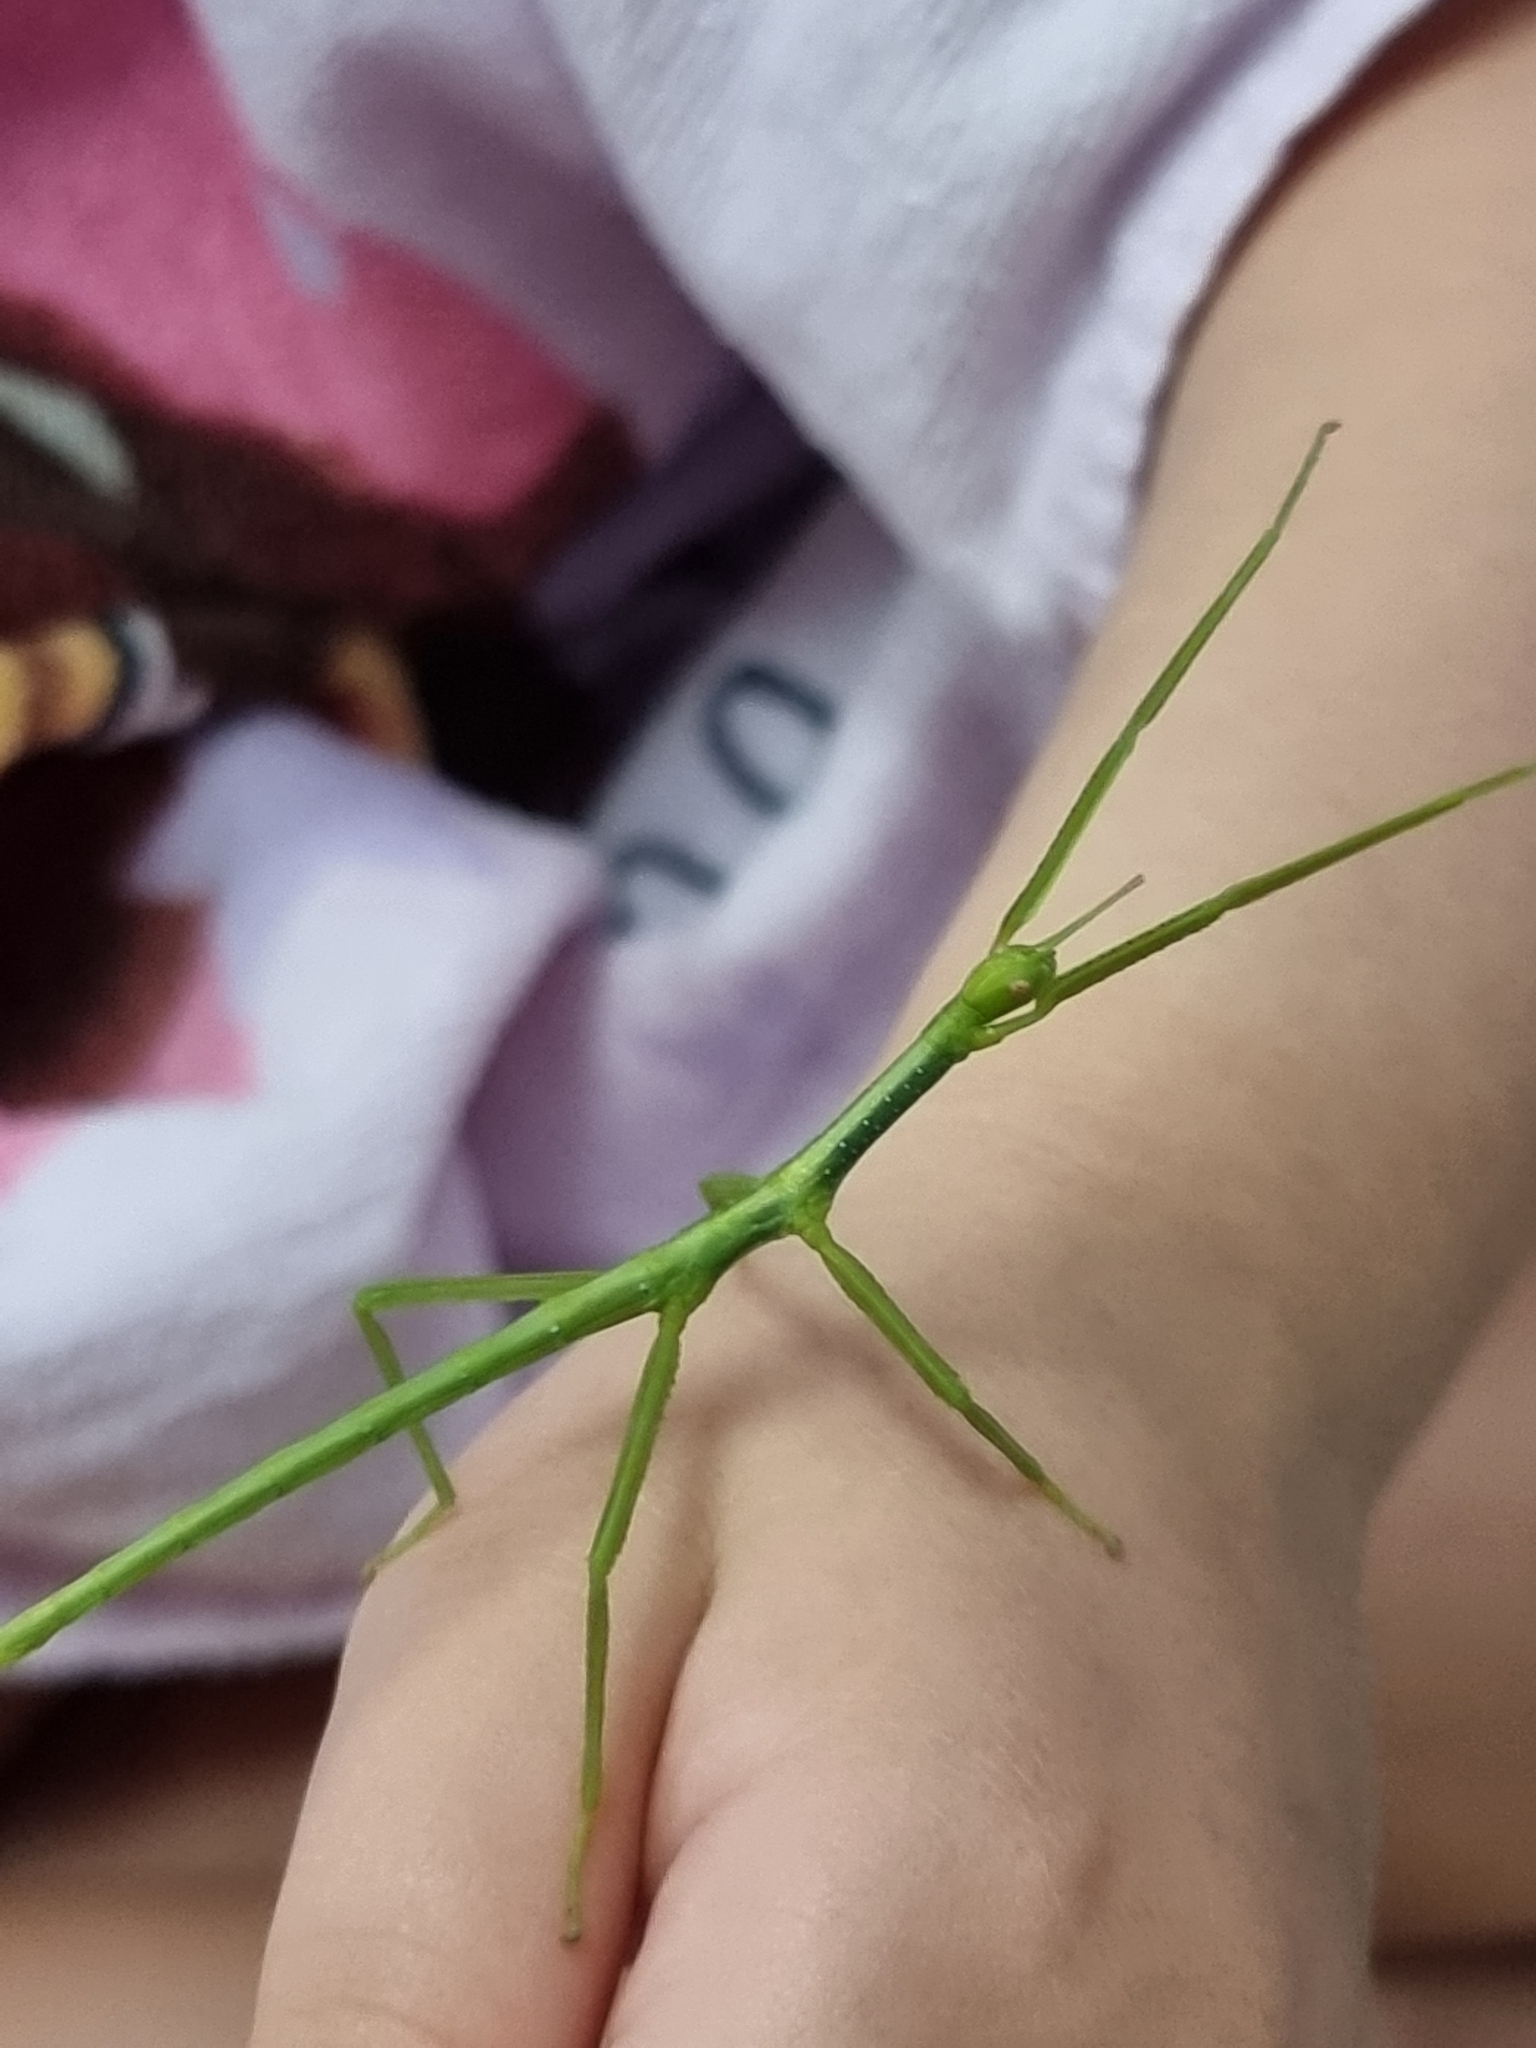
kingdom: Animalia
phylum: Arthropoda
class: Insecta
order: Phasmida
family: Phasmatidae
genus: Anchiale
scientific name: Anchiale briareus
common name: Strong stick insect
